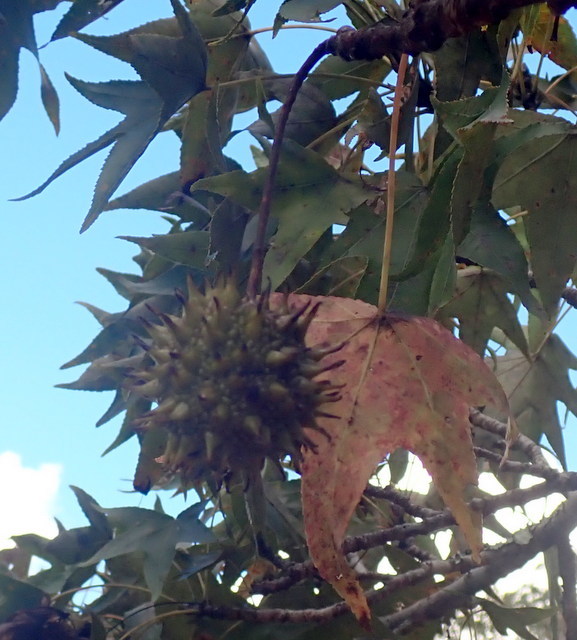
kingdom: Plantae
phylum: Tracheophyta
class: Magnoliopsida
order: Saxifragales
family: Altingiaceae
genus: Liquidambar
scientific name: Liquidambar styraciflua
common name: Sweet gum
